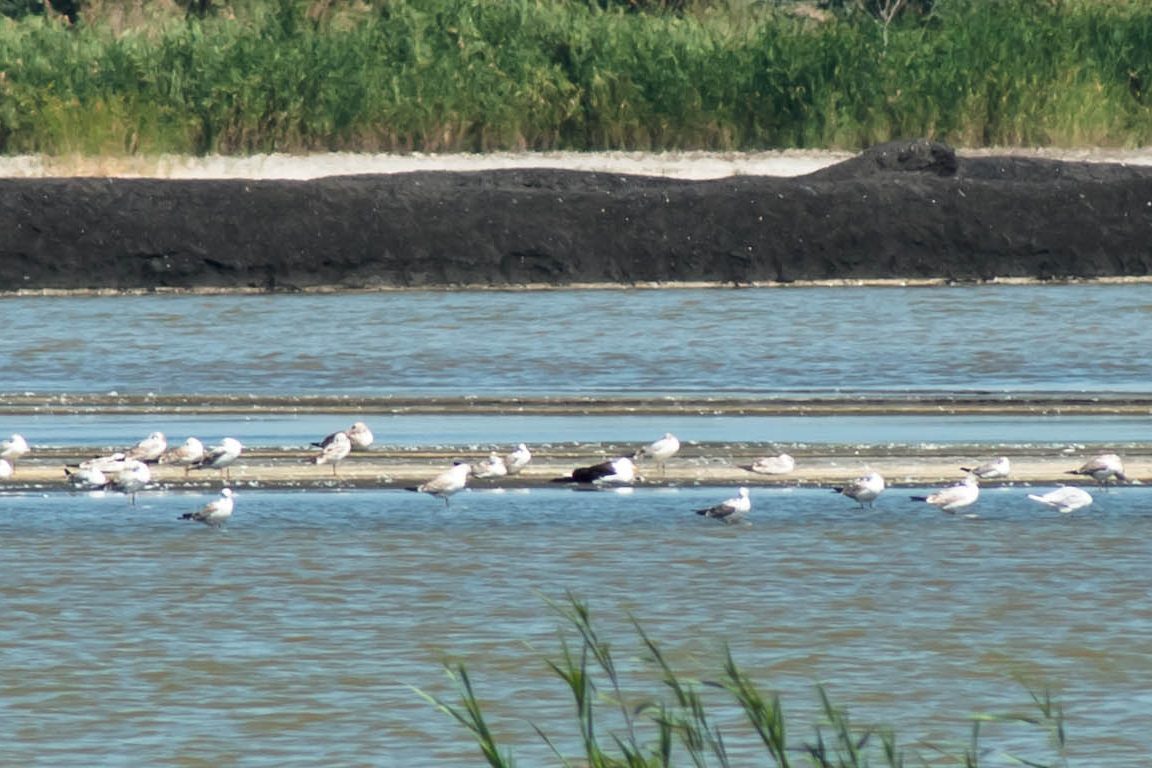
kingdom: Animalia
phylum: Chordata
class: Aves
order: Charadriiformes
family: Laridae
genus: Larus
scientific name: Larus fuscus
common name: Lesser black-backed gull
